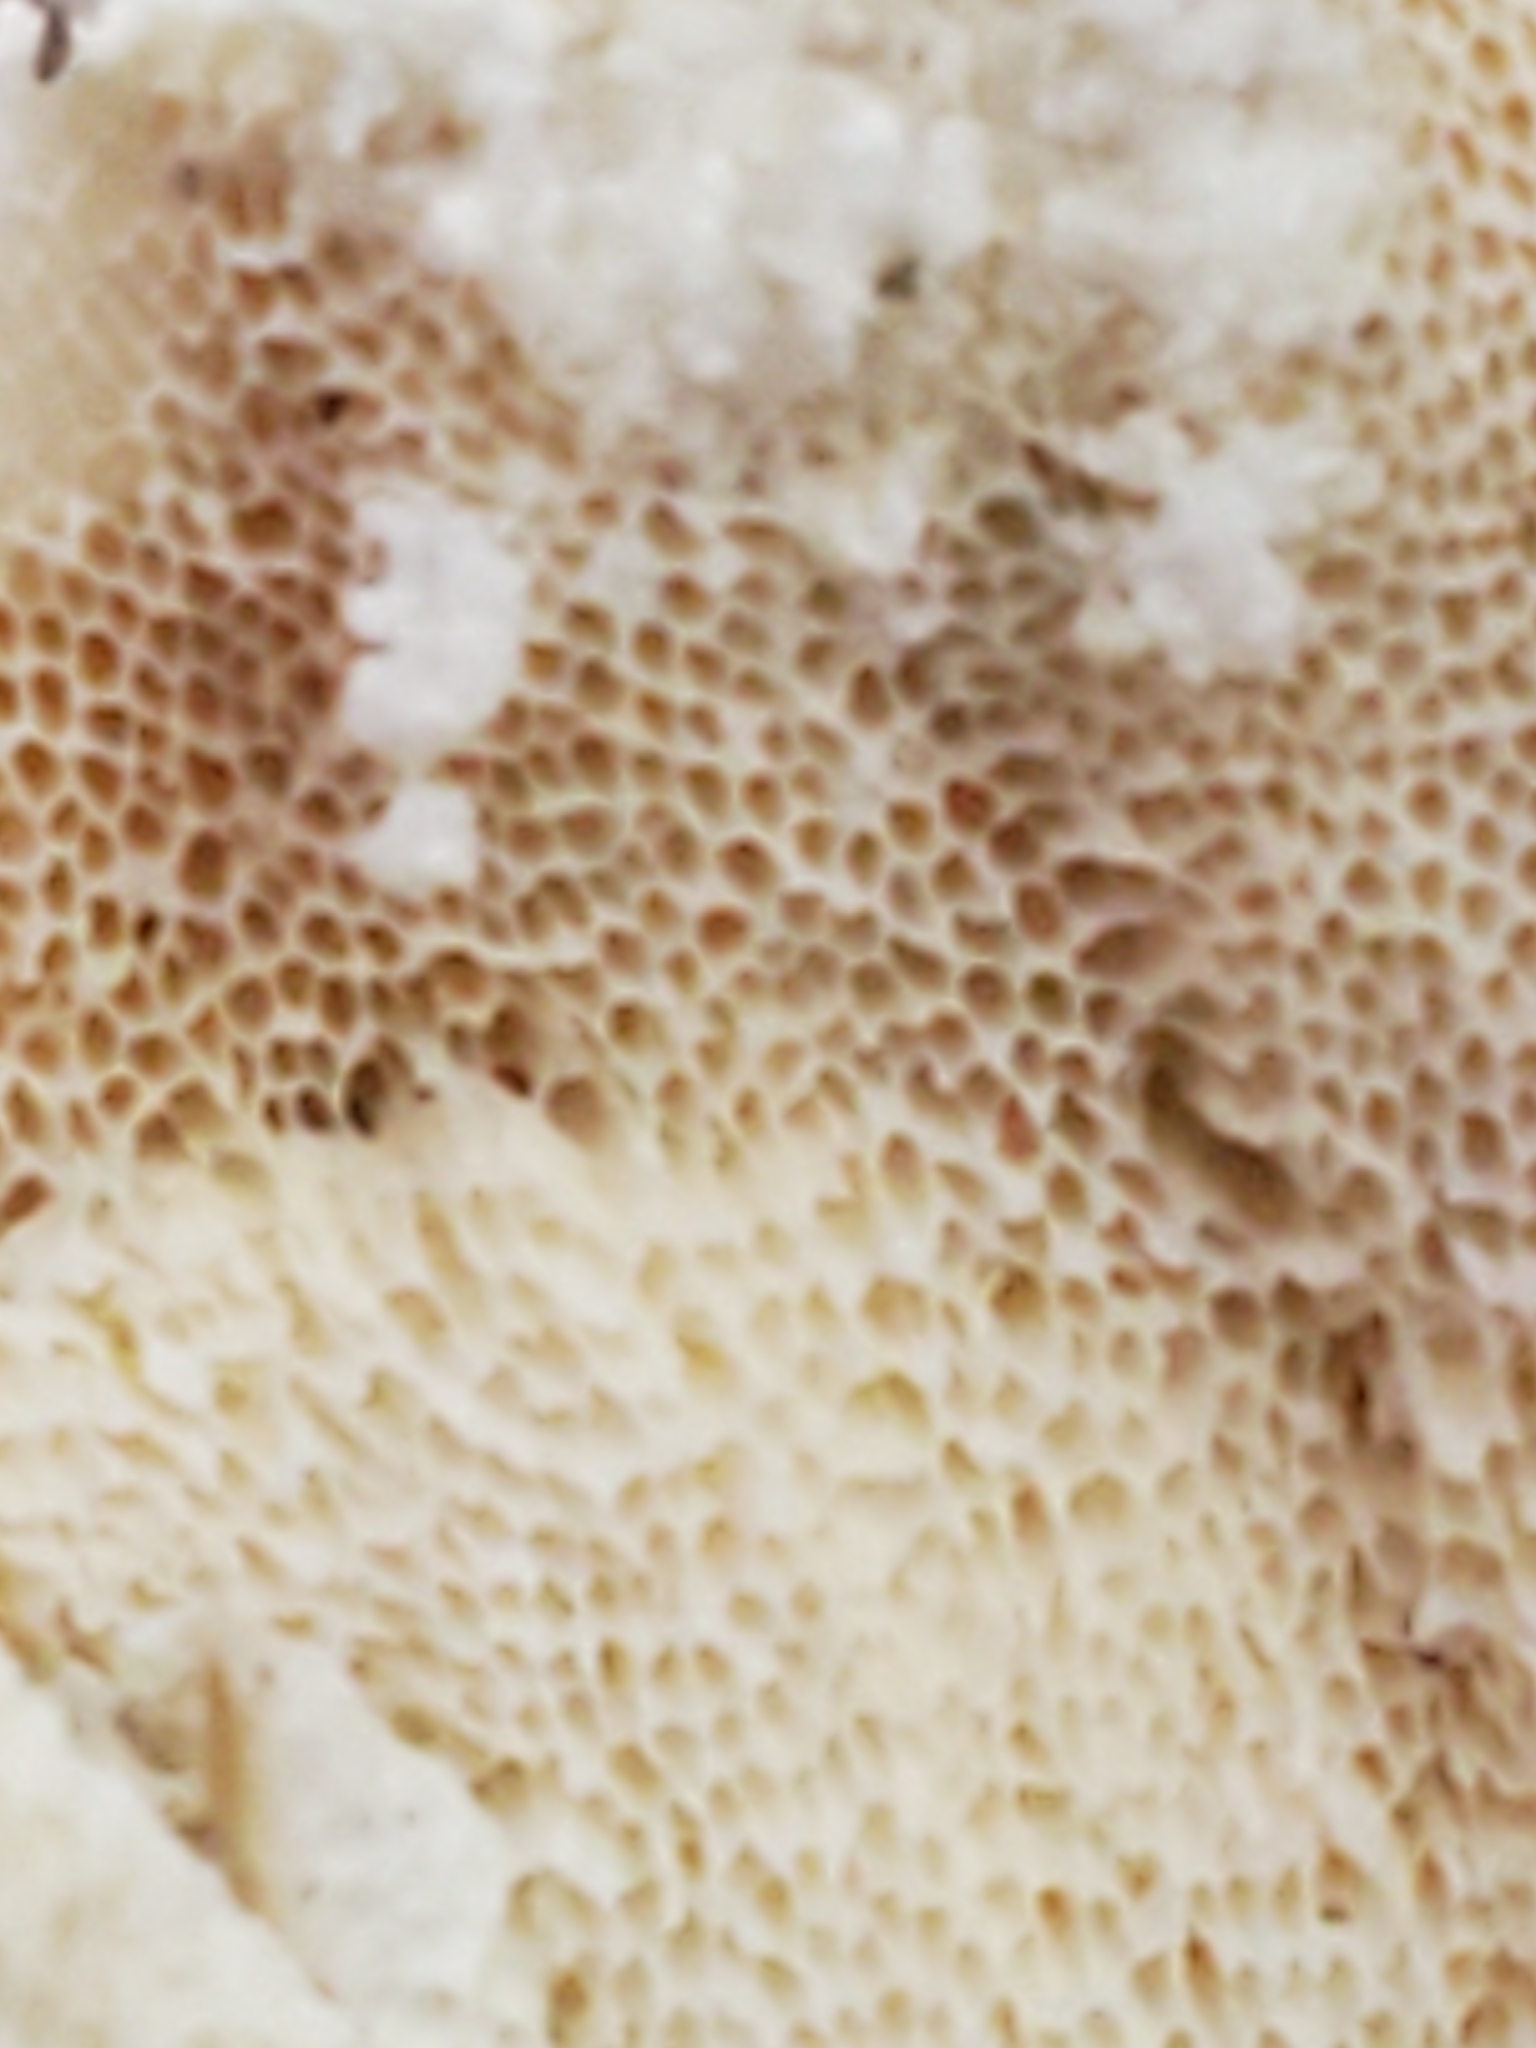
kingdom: Fungi
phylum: Basidiomycota
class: Agaricomycetes
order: Polyporales
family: Polyporaceae
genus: Trametes
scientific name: Trametes versicolor
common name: Turkeytail
